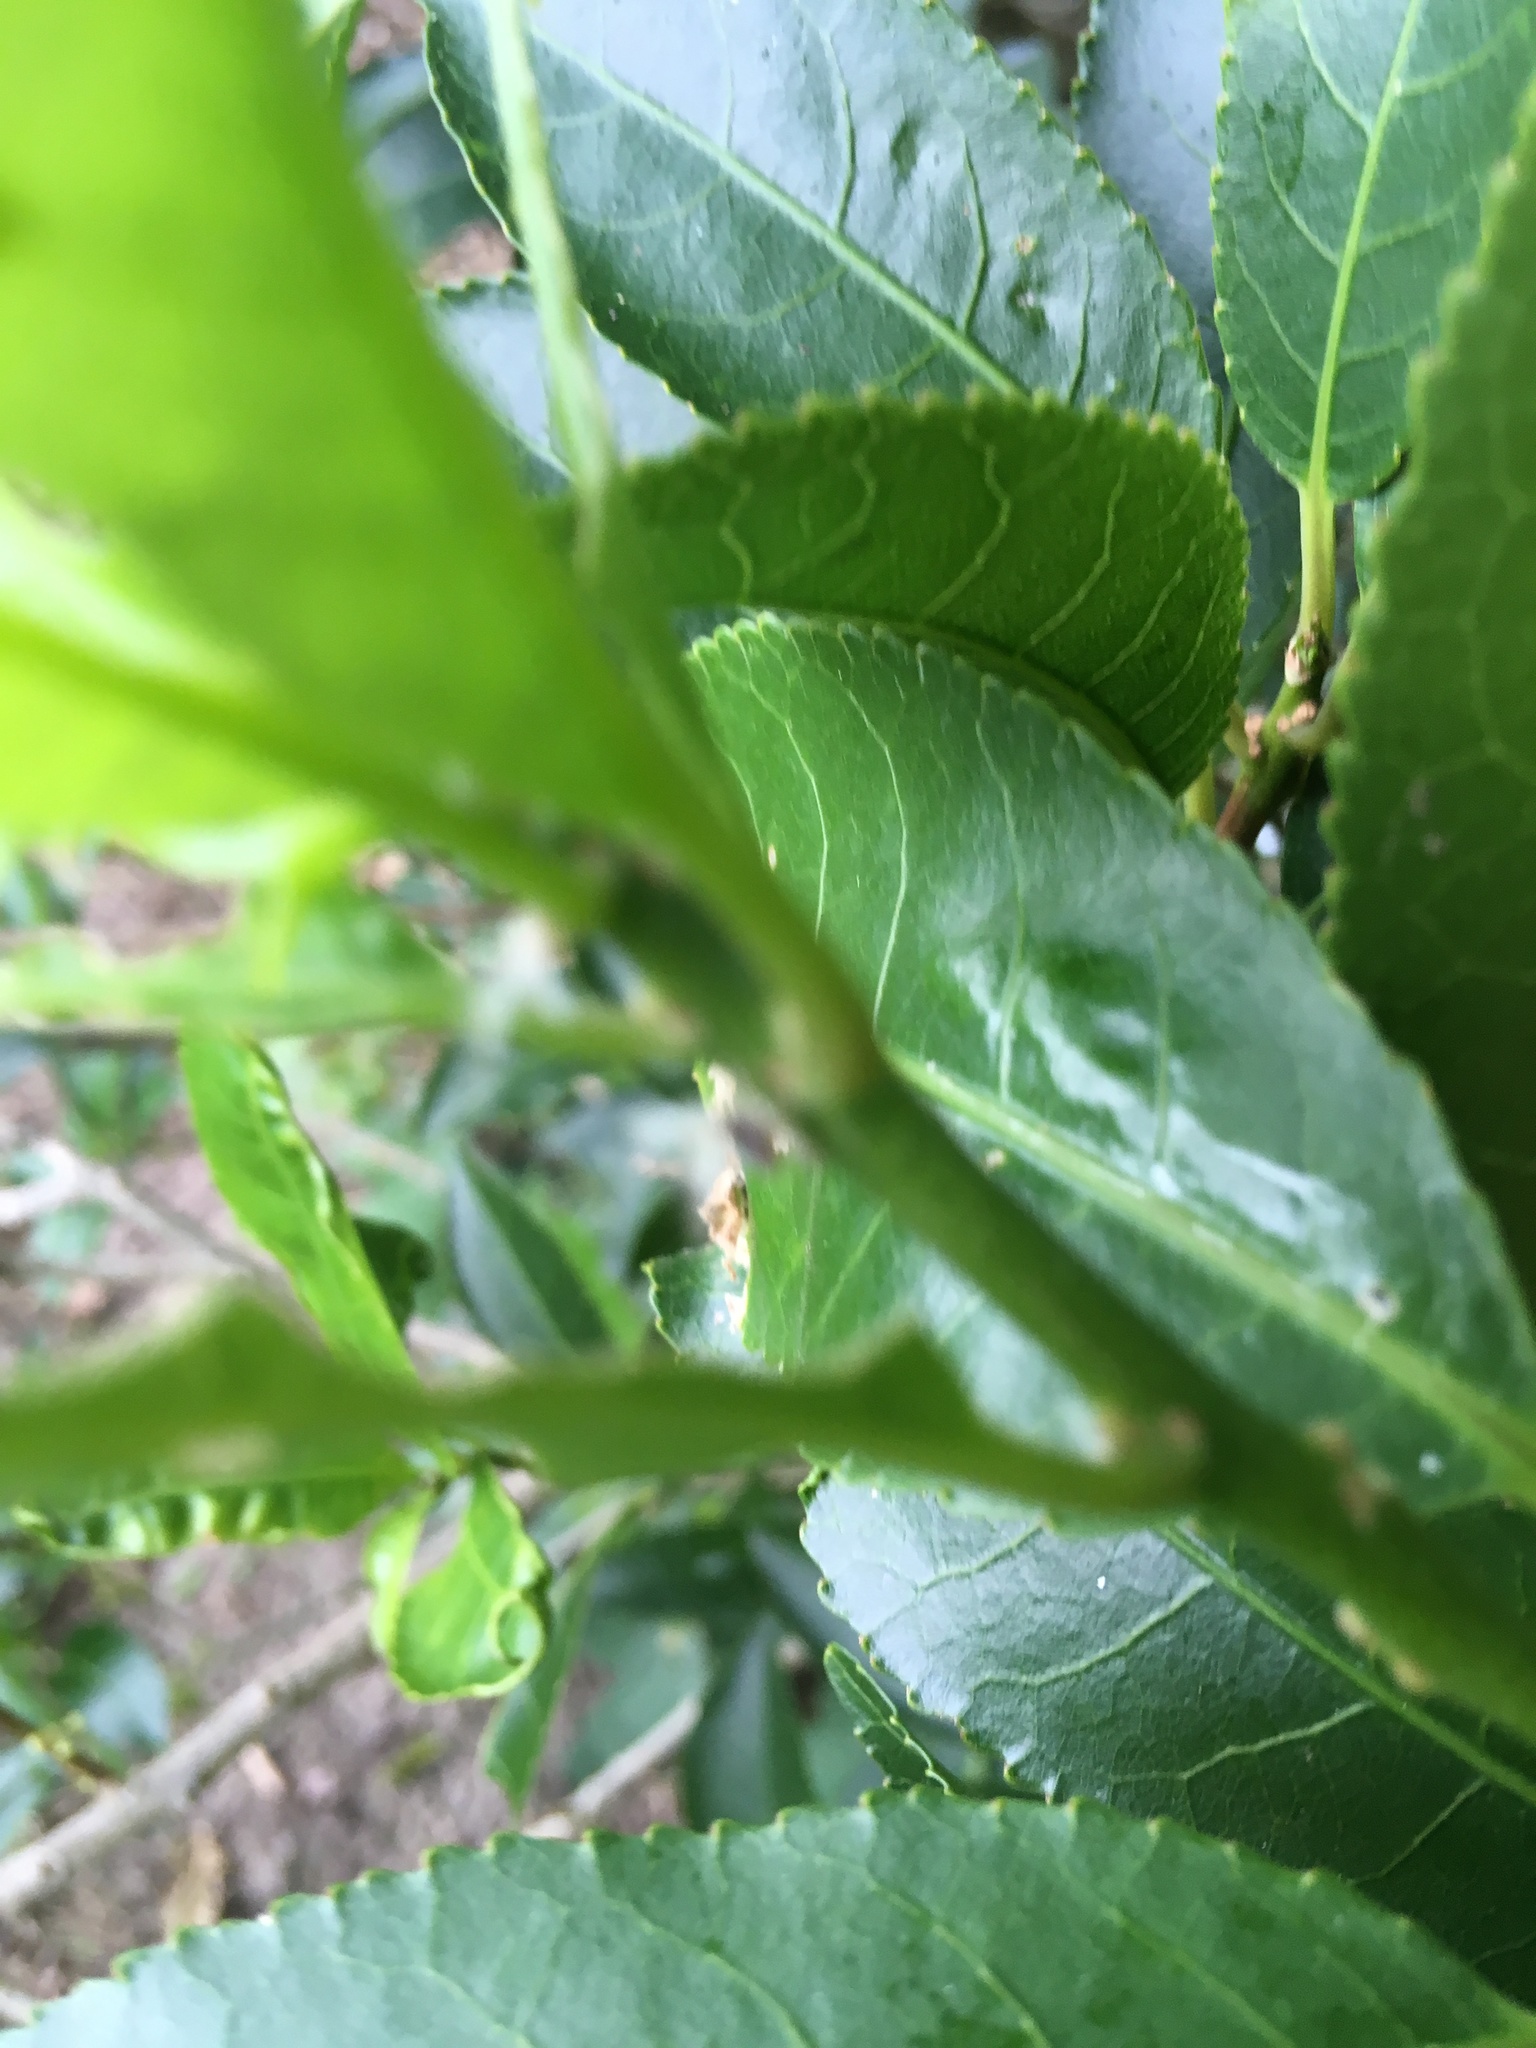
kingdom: Animalia
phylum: Arthropoda
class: Insecta
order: Hemiptera
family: Ricaniidae
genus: Scolypopa
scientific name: Scolypopa australis
